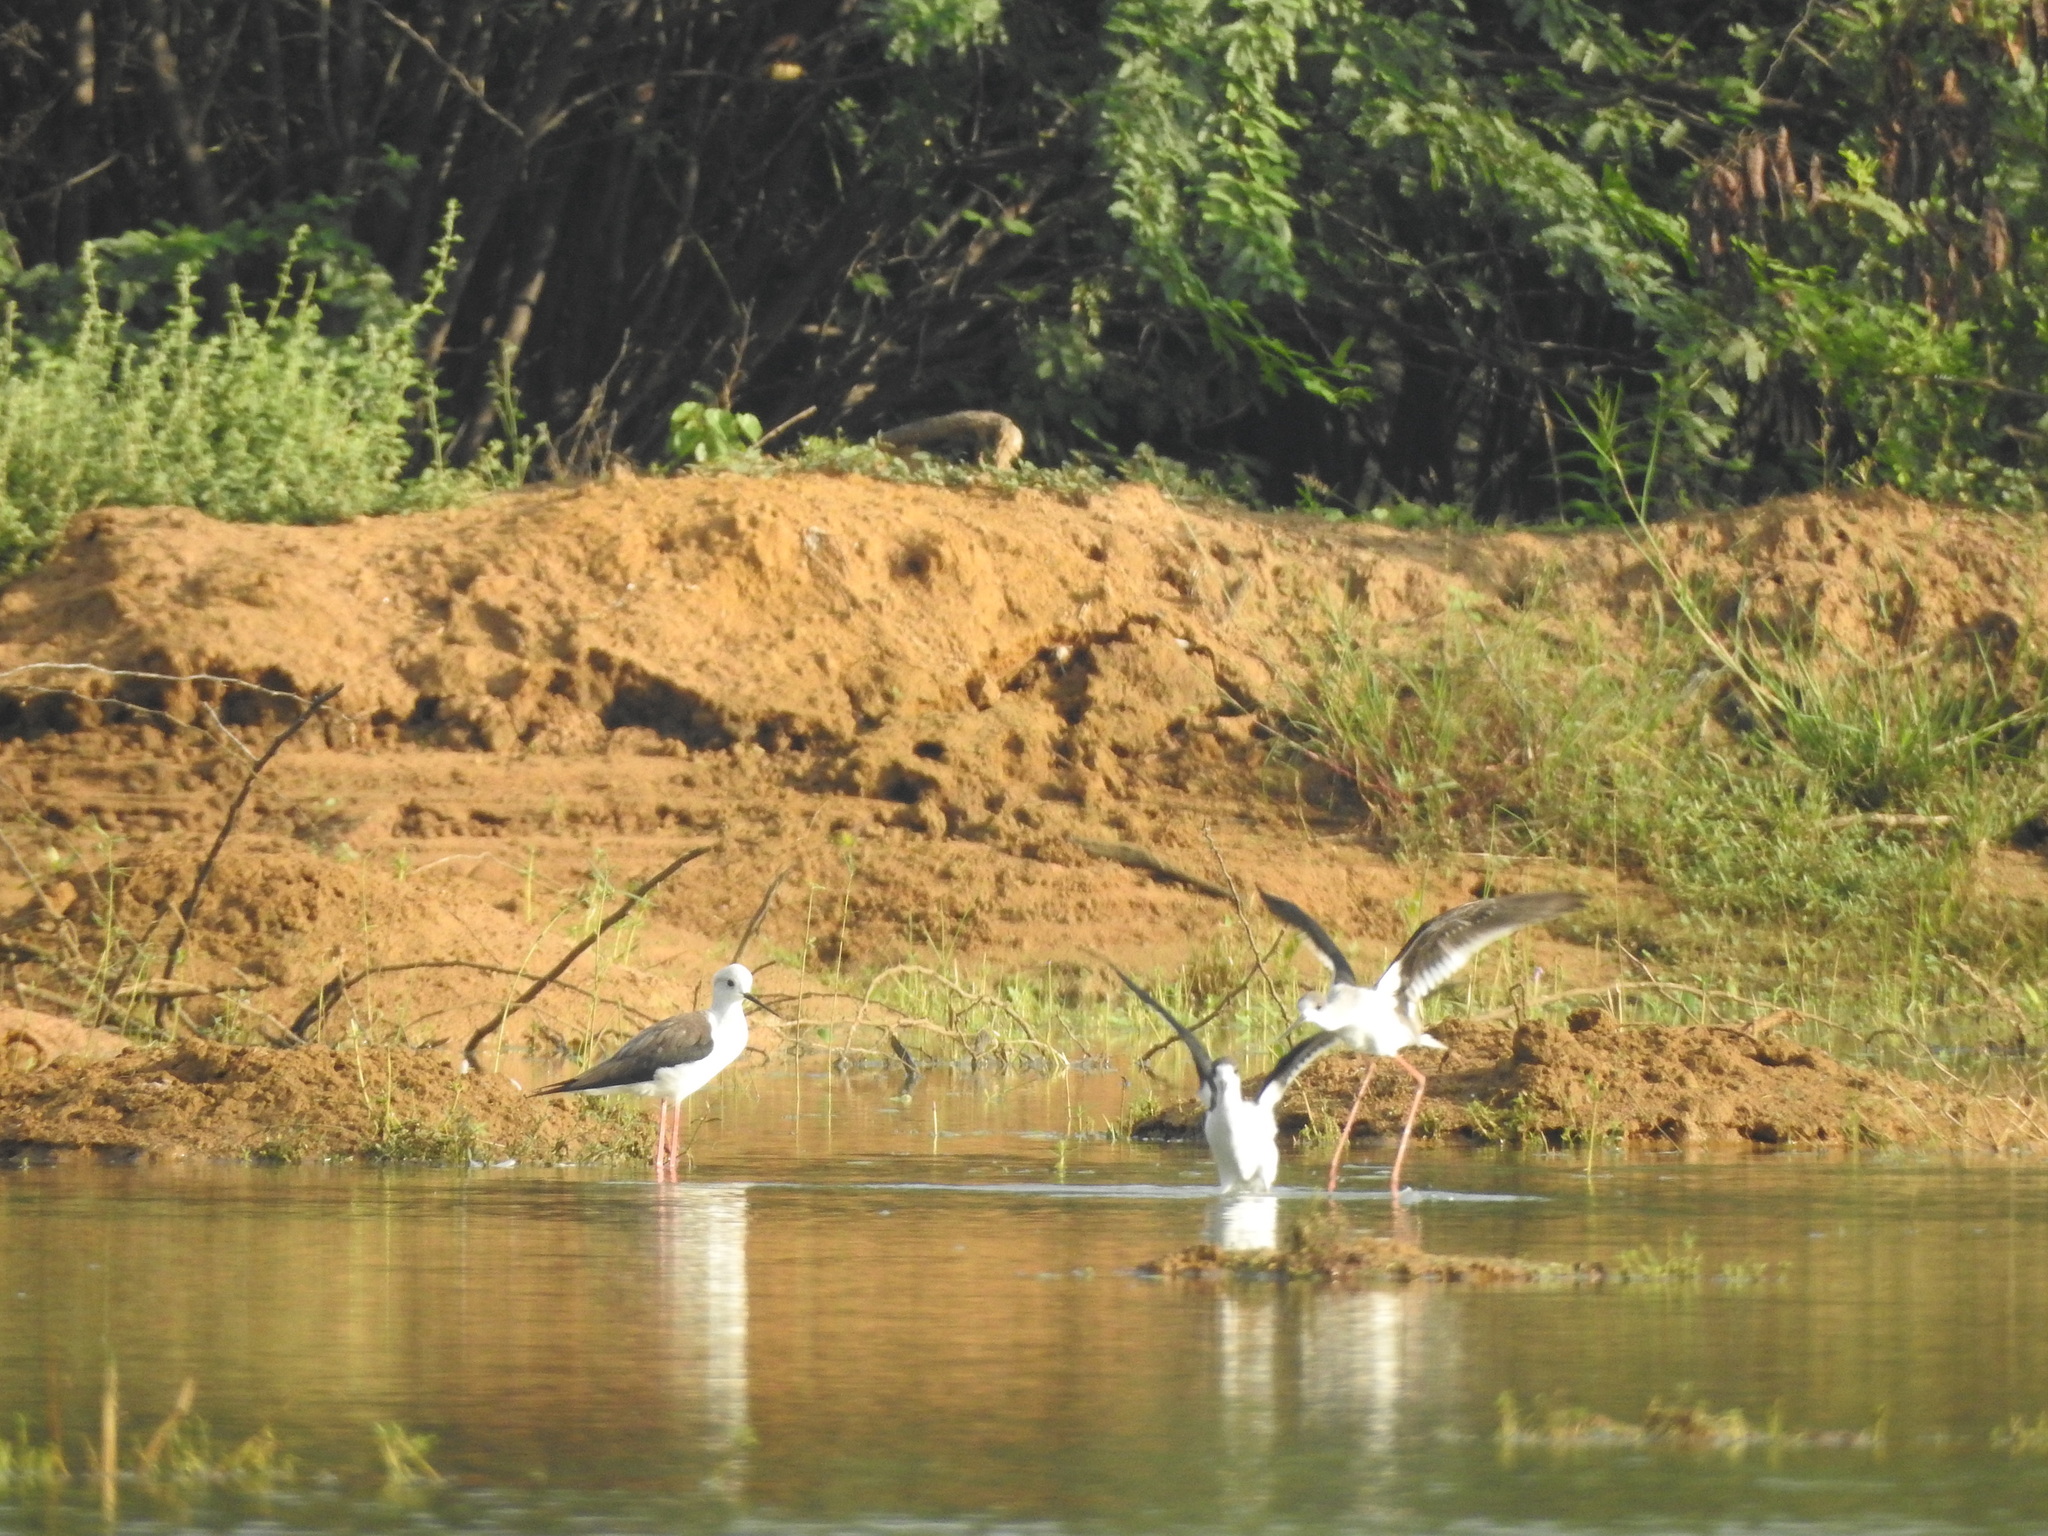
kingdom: Animalia
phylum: Chordata
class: Aves
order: Charadriiformes
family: Recurvirostridae
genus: Himantopus
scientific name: Himantopus himantopus
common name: Black-winged stilt
